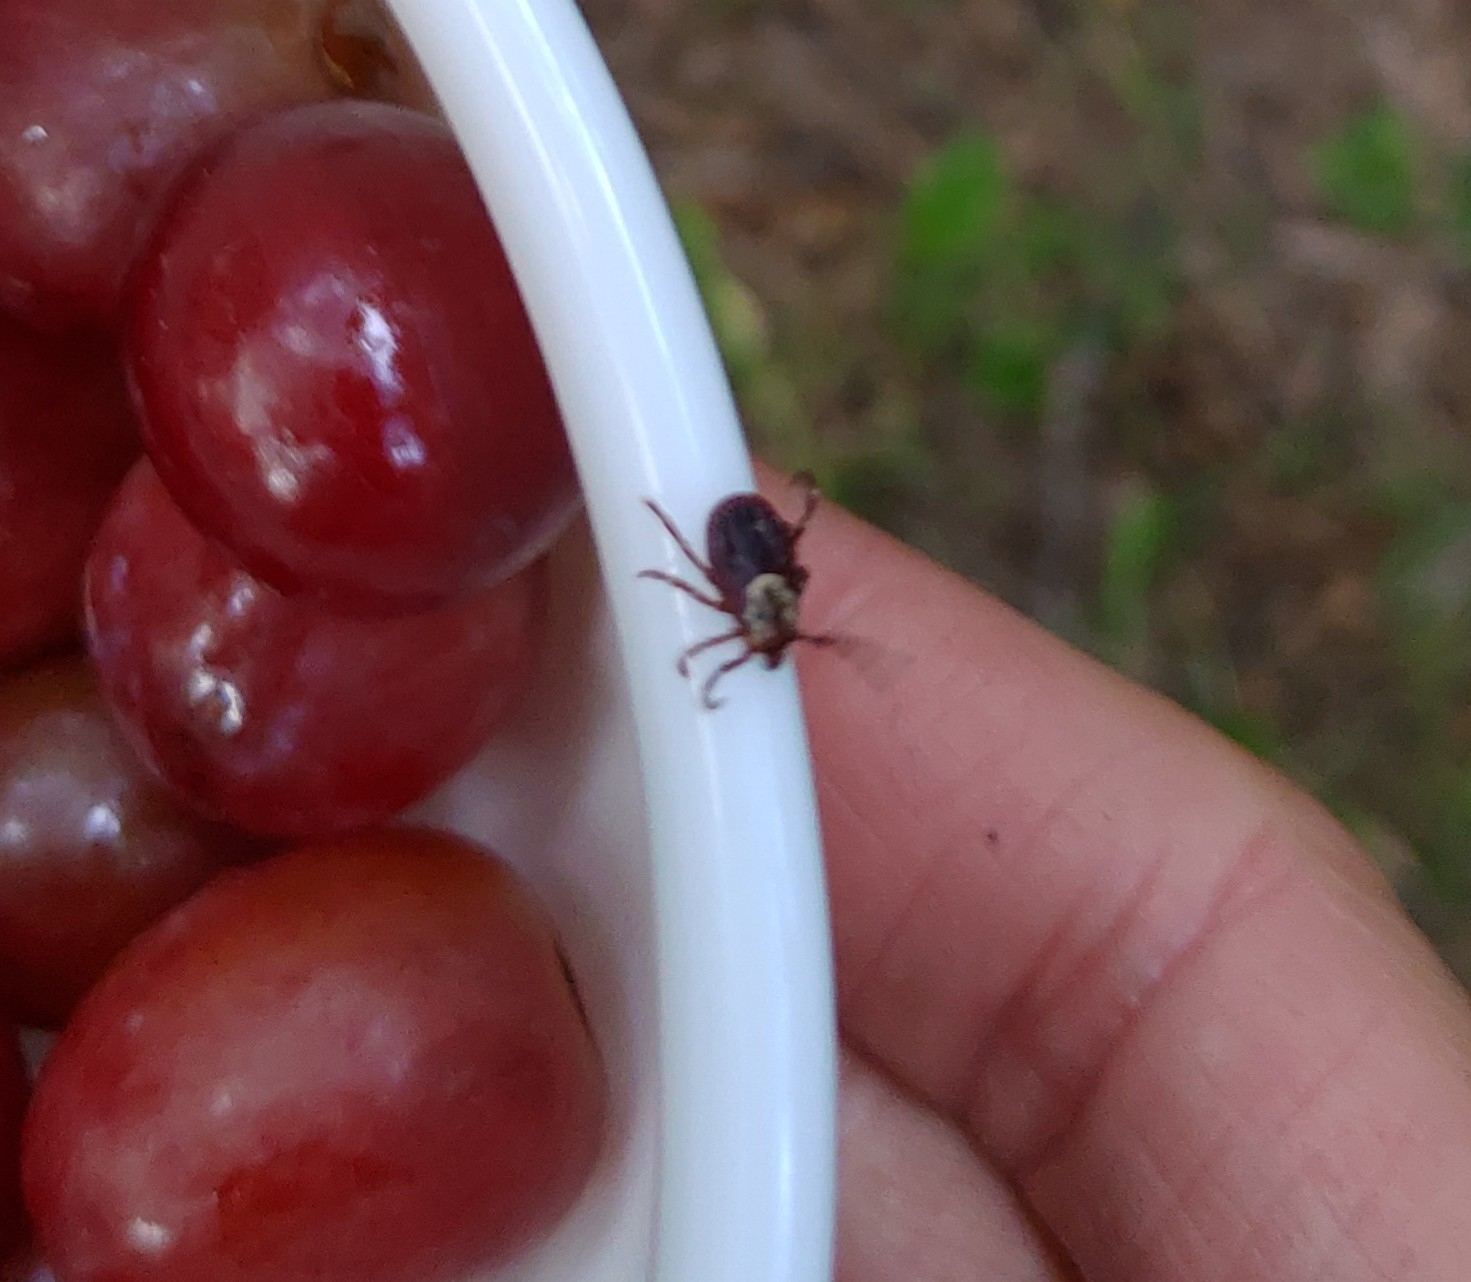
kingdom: Animalia
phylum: Arthropoda
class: Arachnida
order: Ixodida
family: Ixodidae
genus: Dermacentor
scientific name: Dermacentor variabilis
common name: American dog tick
